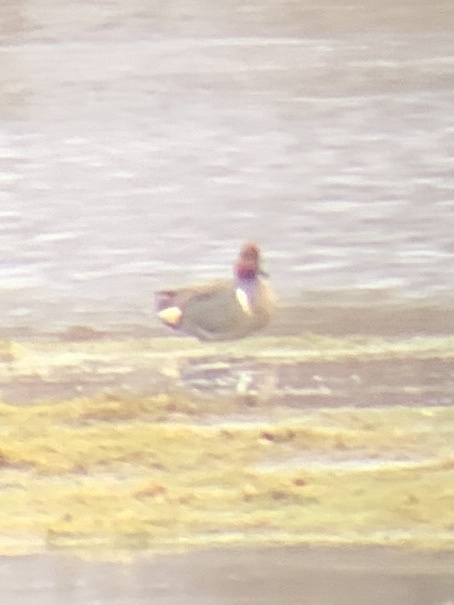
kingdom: Animalia
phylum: Chordata
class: Aves
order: Anseriformes
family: Anatidae
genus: Anas
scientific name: Anas crecca
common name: Eurasian teal
